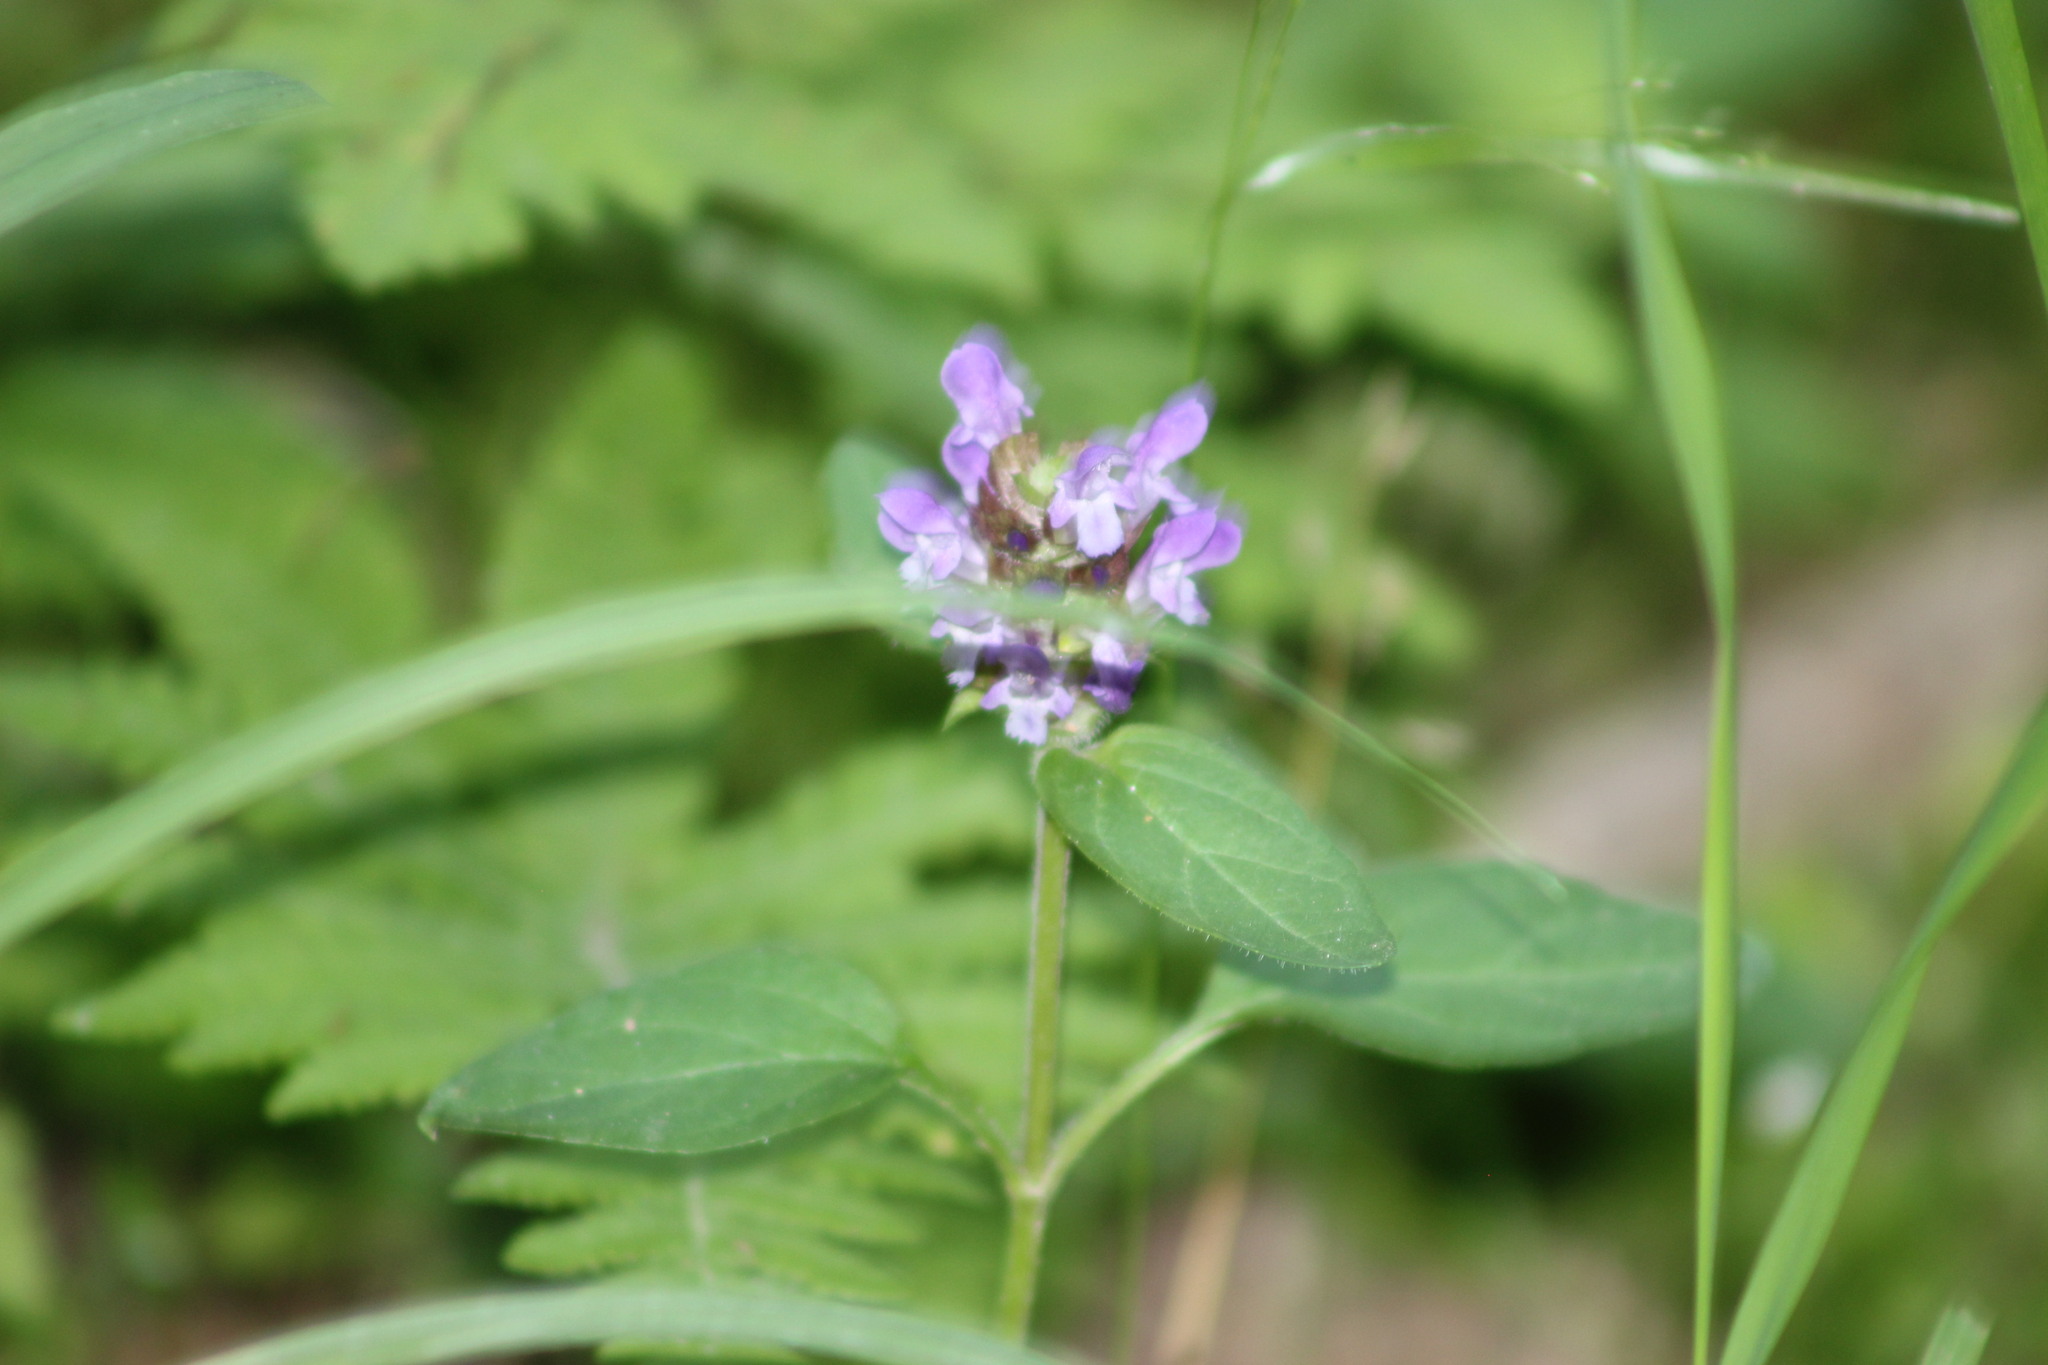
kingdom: Plantae
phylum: Tracheophyta
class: Magnoliopsida
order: Lamiales
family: Lamiaceae
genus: Prunella
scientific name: Prunella vulgaris
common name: Heal-all
